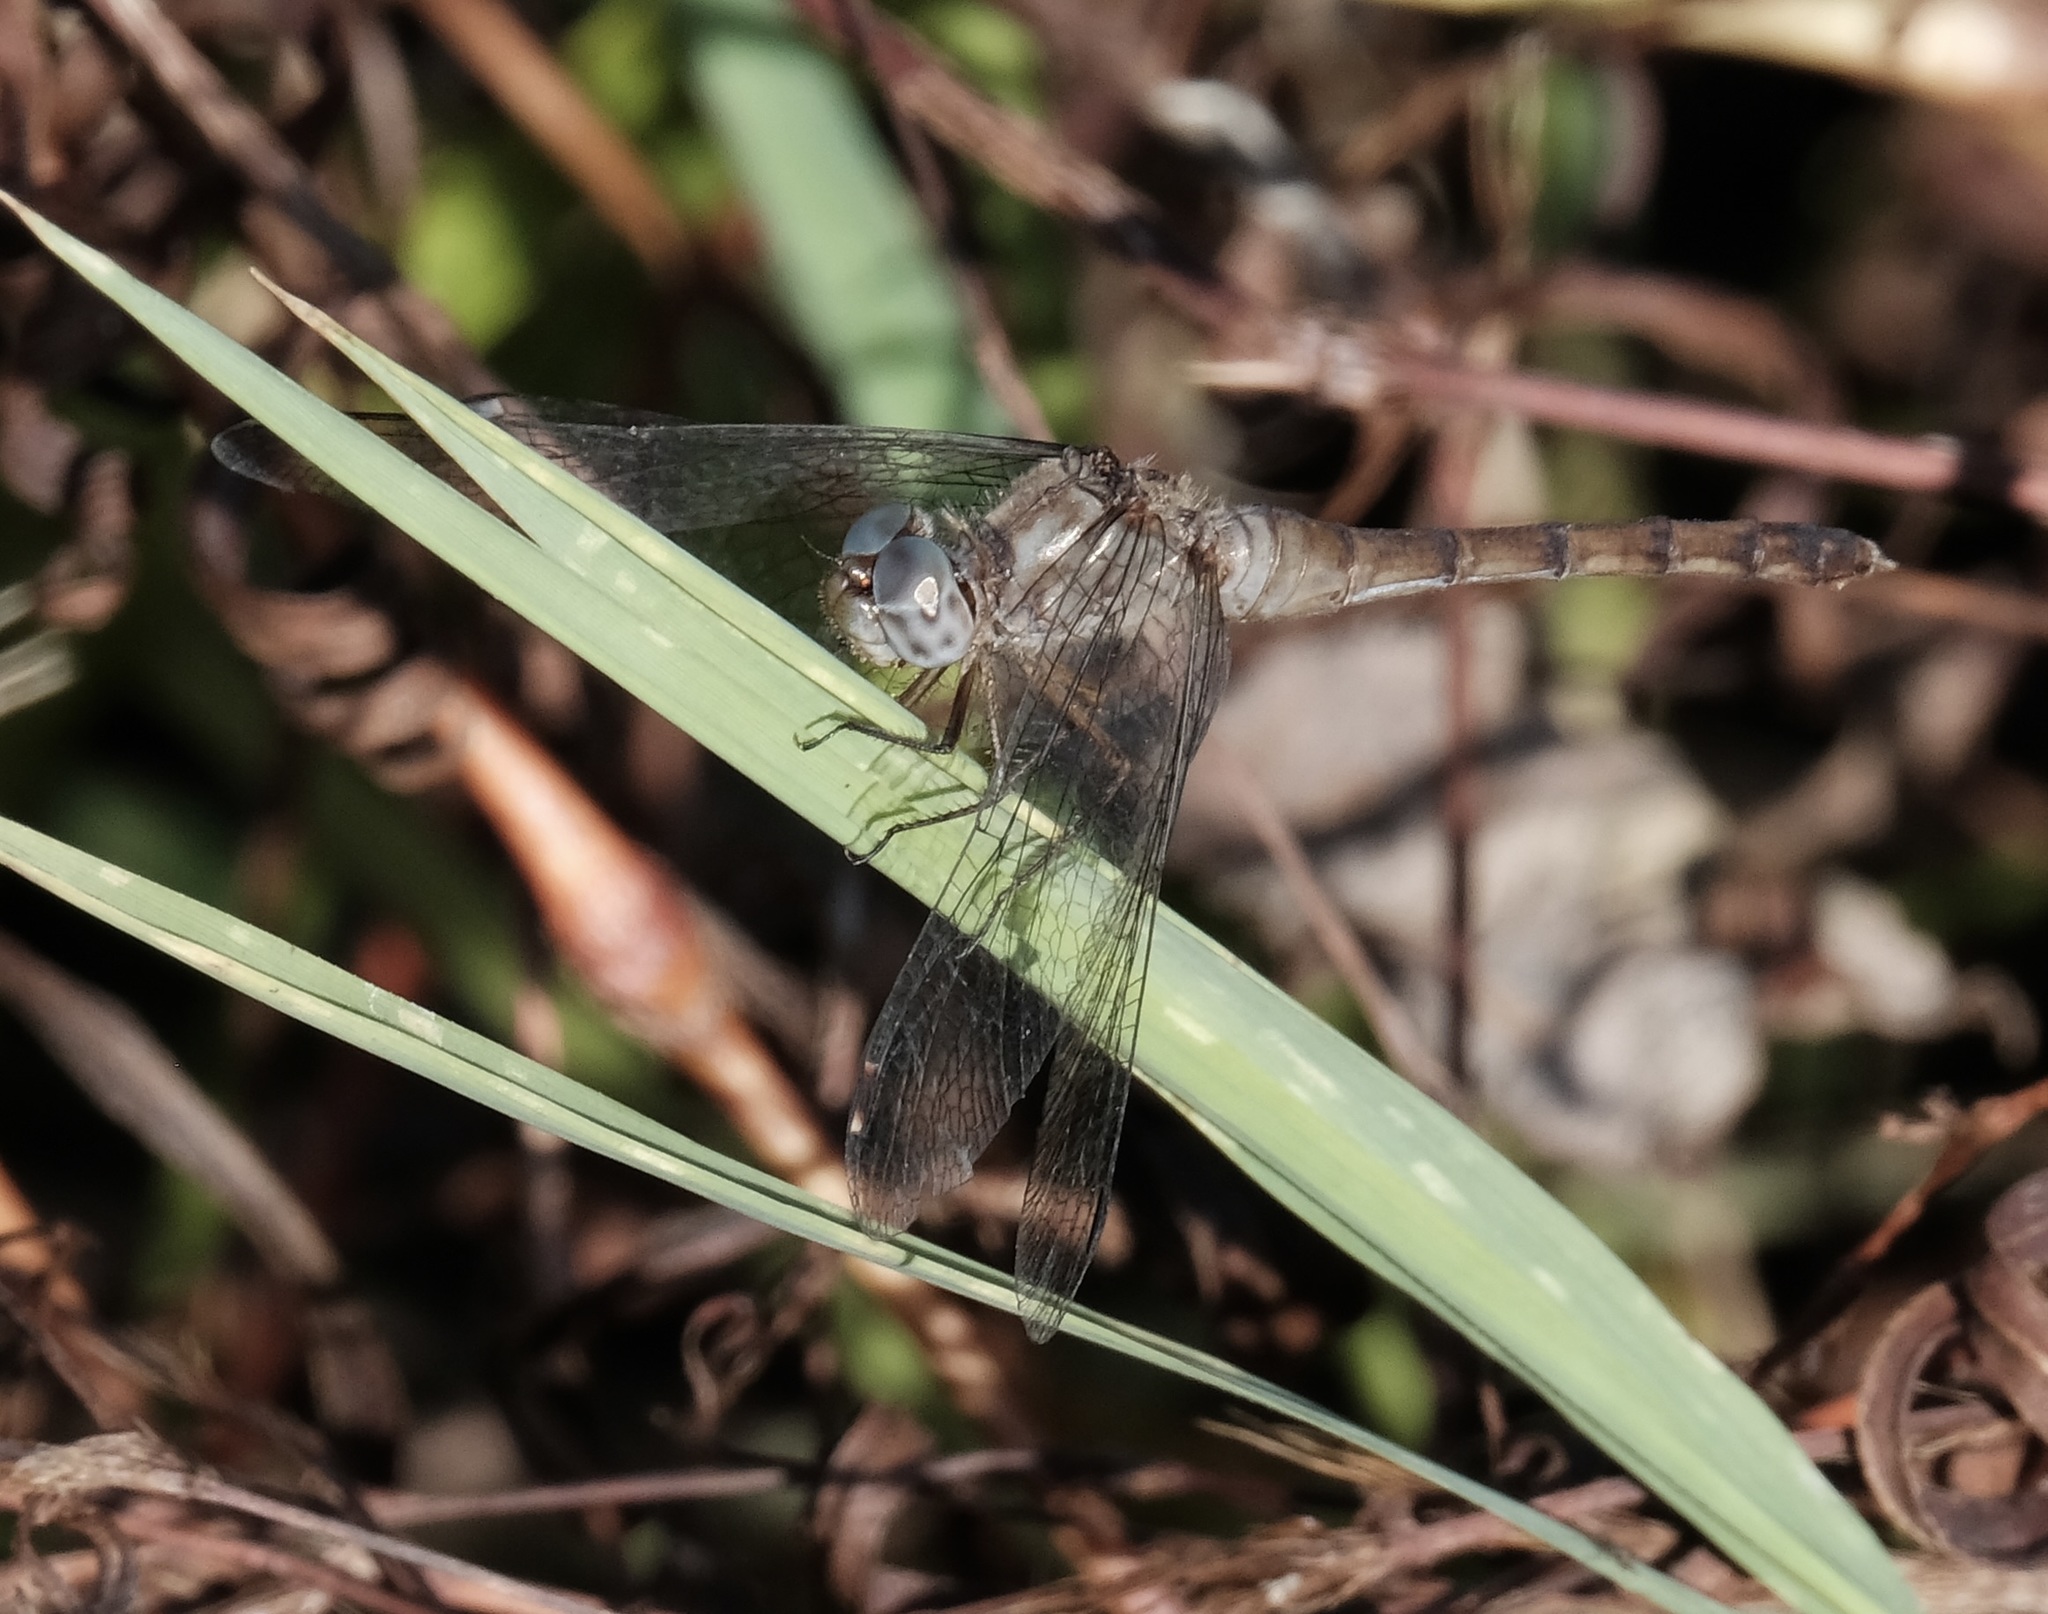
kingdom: Animalia
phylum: Arthropoda
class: Insecta
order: Odonata
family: Libellulidae
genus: Sympetrum
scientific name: Sympetrum ambiguum
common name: Blue-faced meadowhawk
